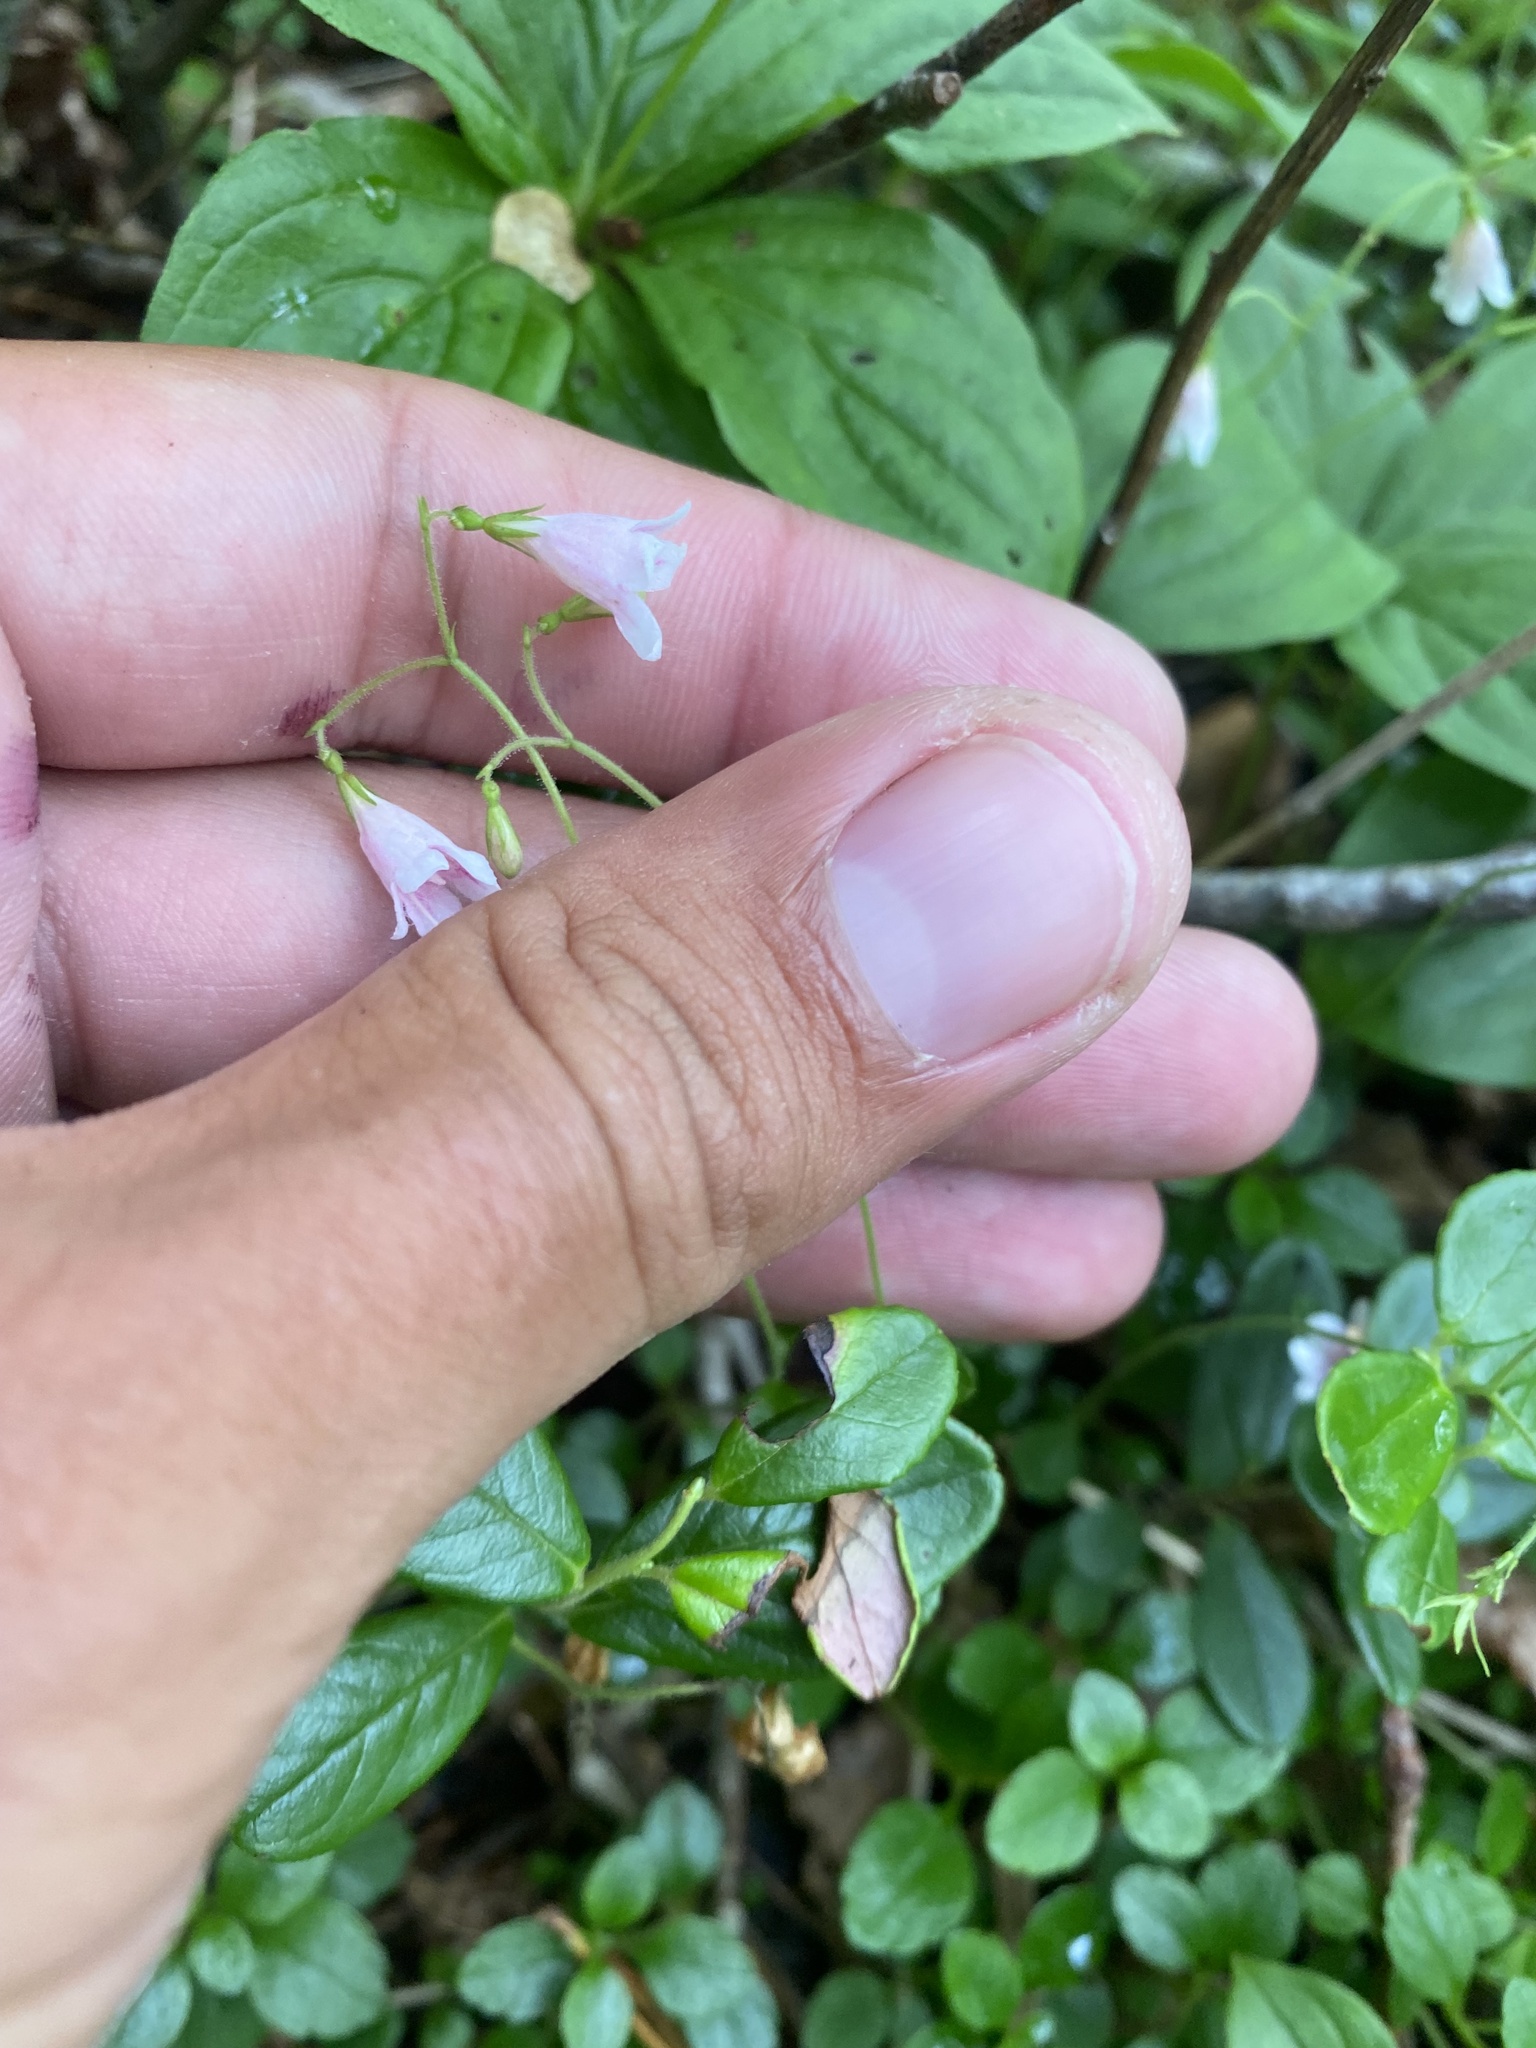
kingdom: Plantae
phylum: Tracheophyta
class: Magnoliopsida
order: Dipsacales
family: Caprifoliaceae
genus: Linnaea
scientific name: Linnaea borealis
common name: Twinflower
